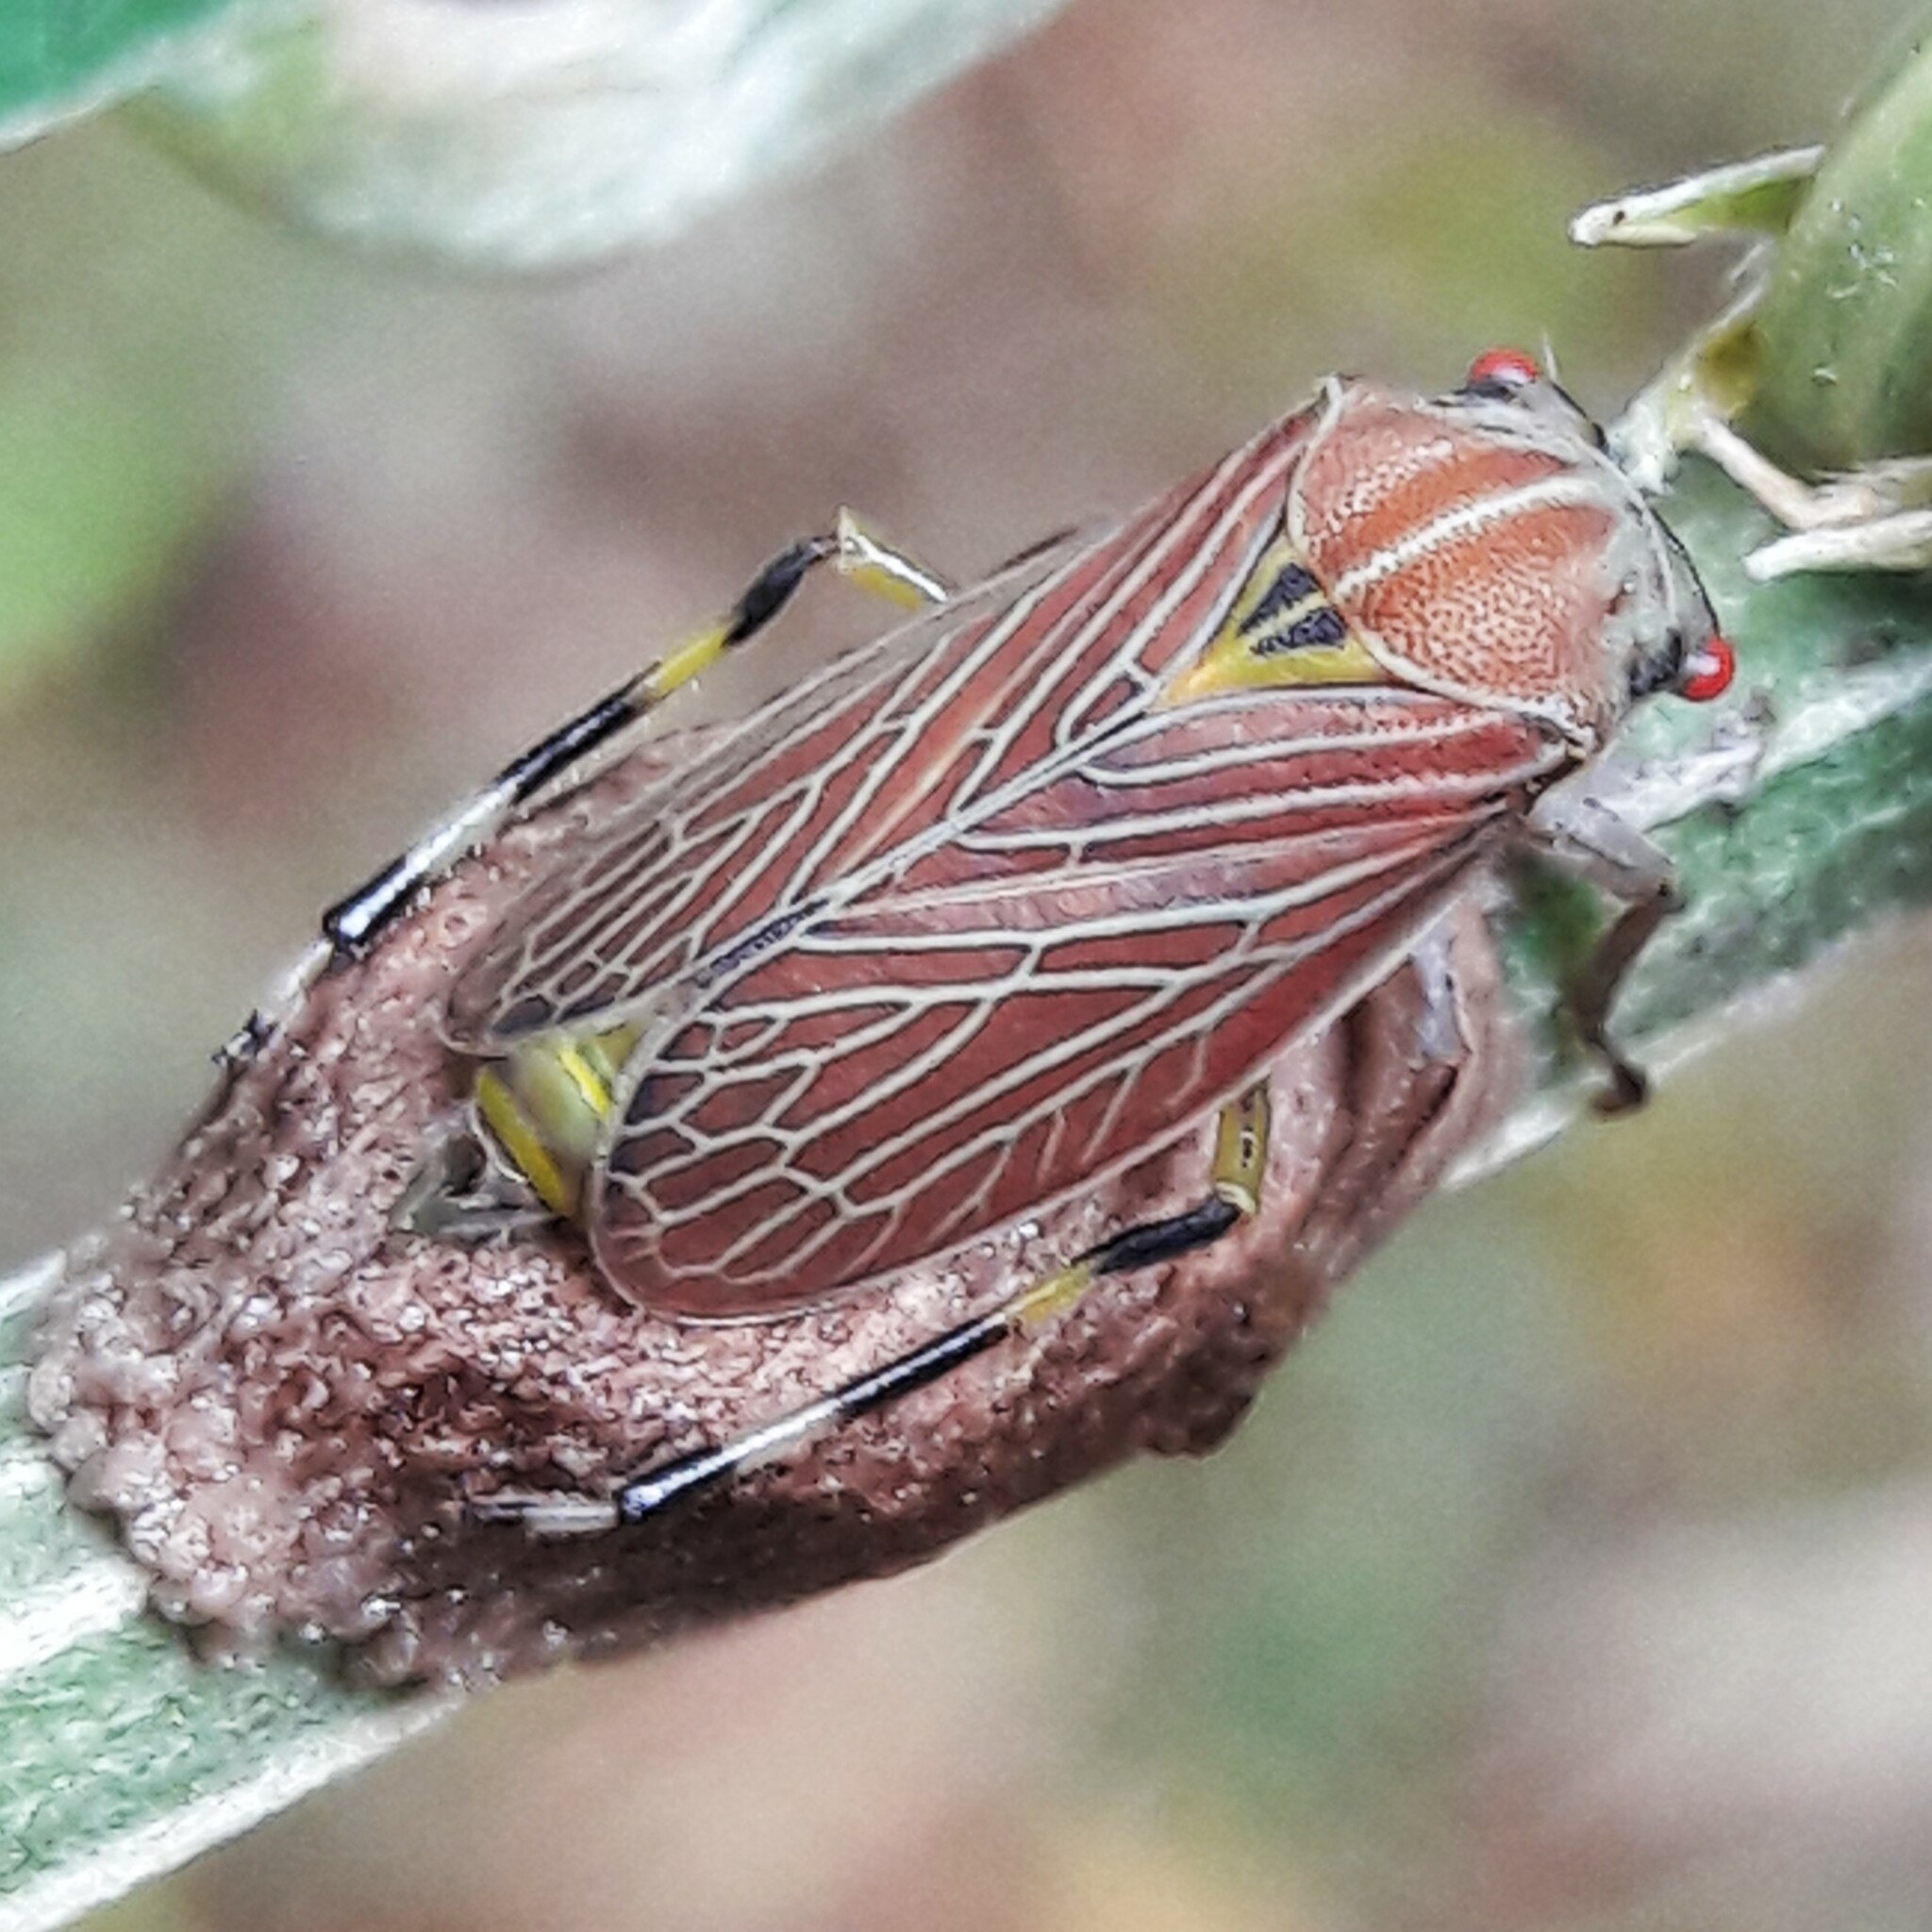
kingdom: Animalia
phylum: Arthropoda
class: Insecta
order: Hemiptera
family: Aetalionidae
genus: Aetalion
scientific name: Aetalion reticulatum
